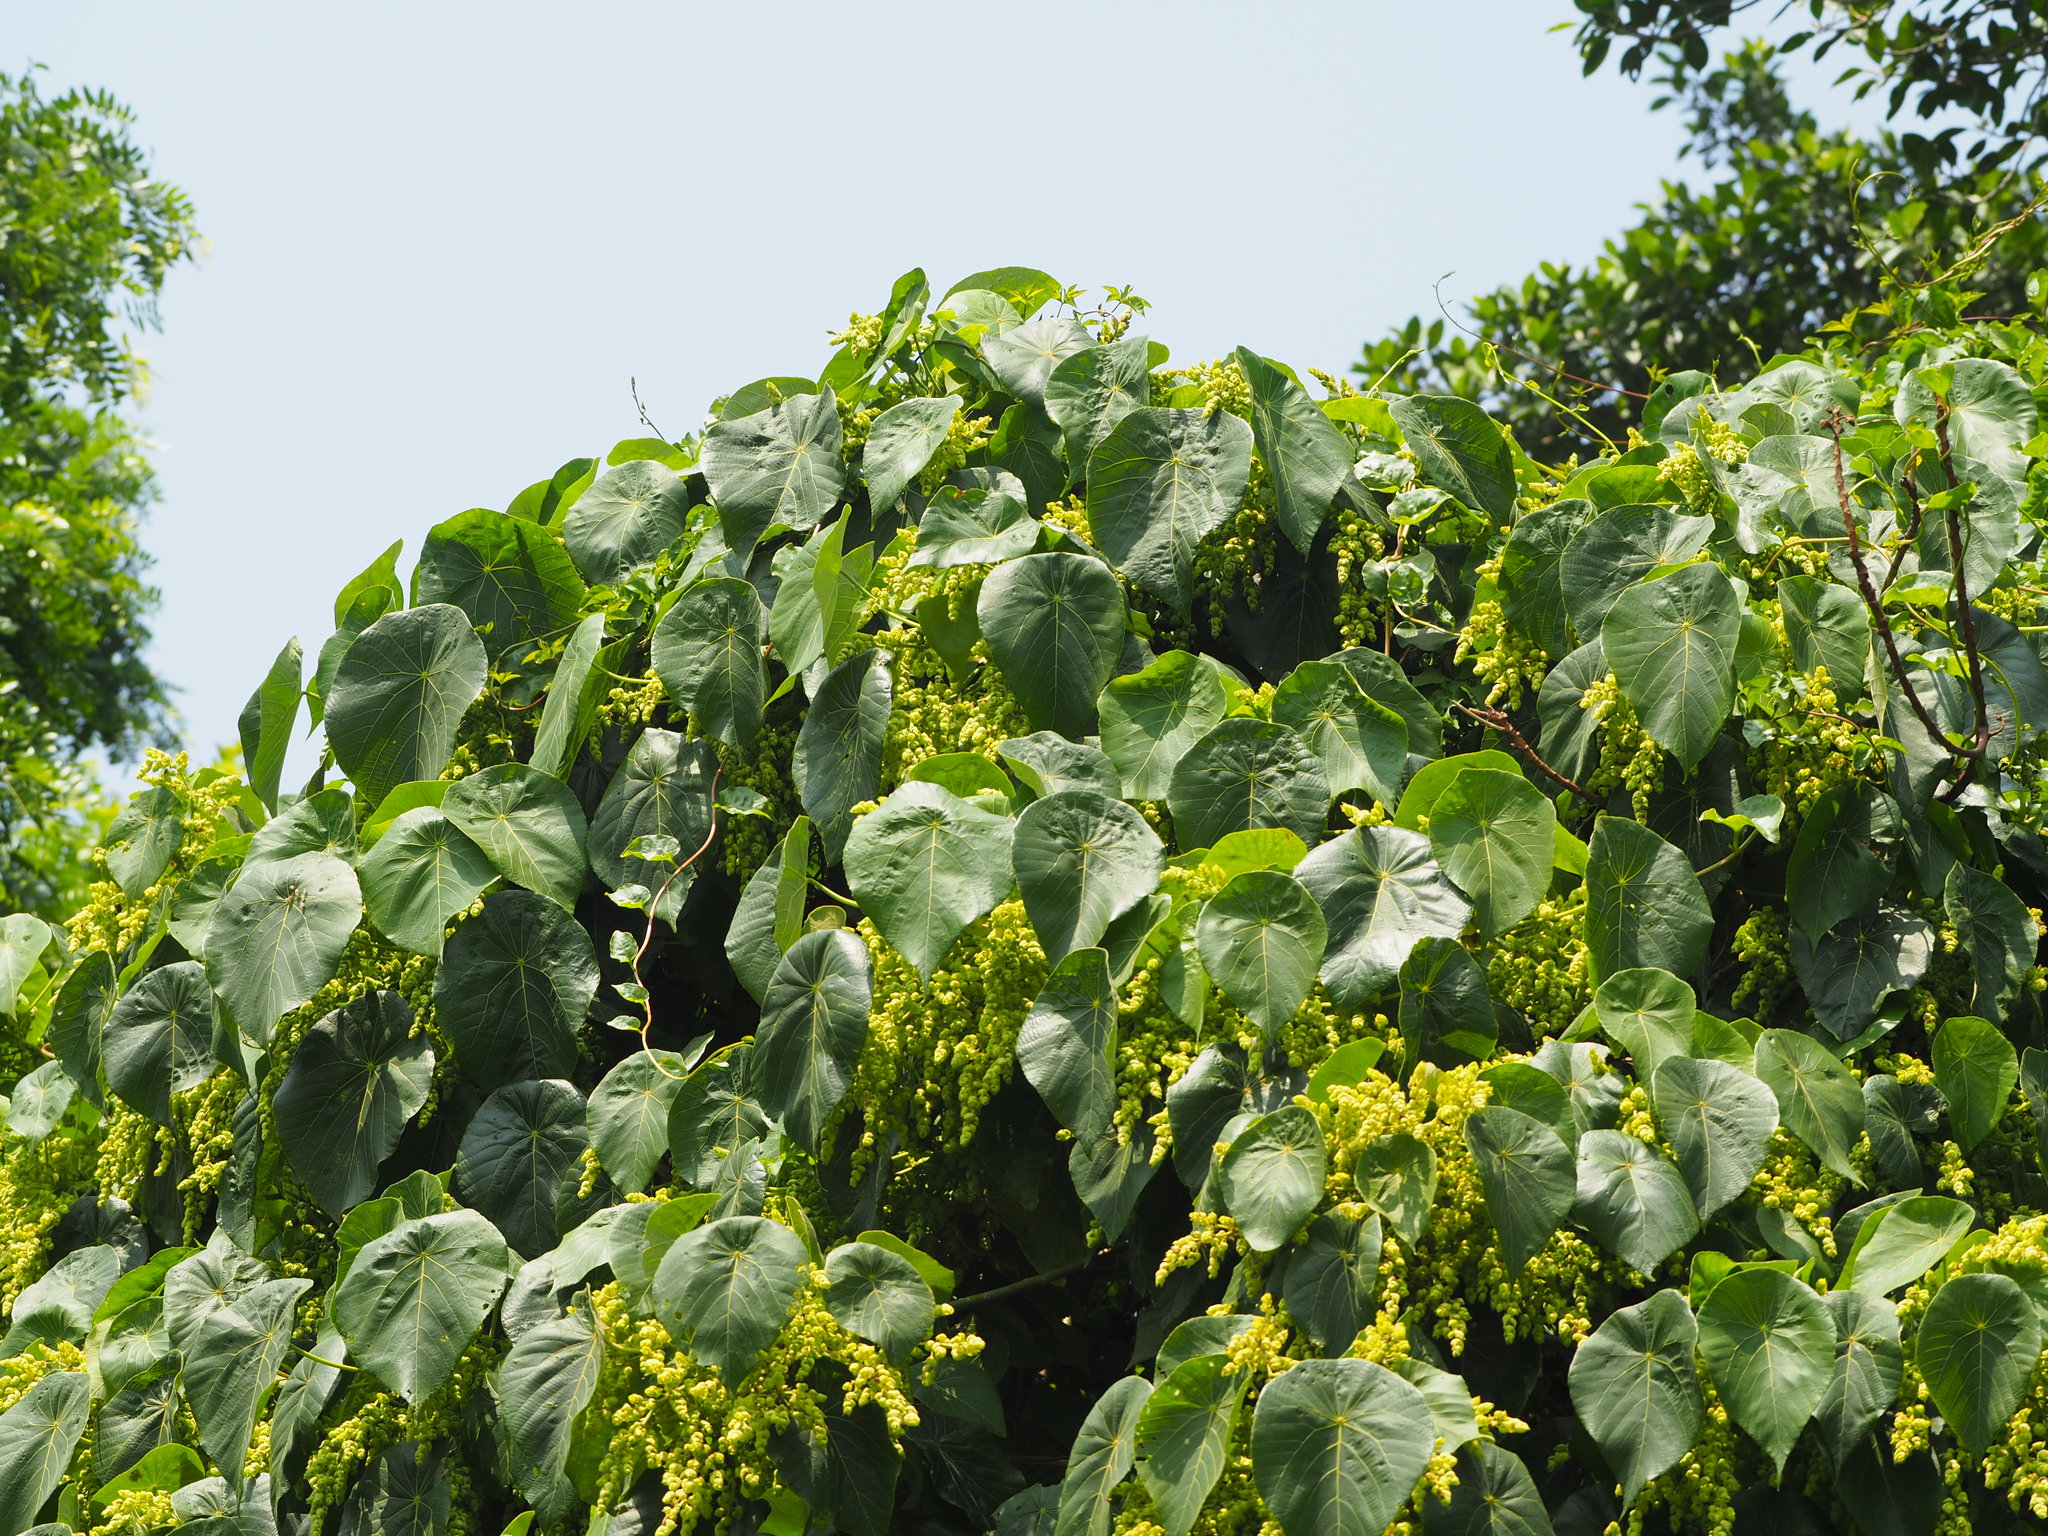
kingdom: Plantae
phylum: Tracheophyta
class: Magnoliopsida
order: Malpighiales
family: Euphorbiaceae
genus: Macaranga
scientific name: Macaranga tanarius
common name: Parasol leaf tree
